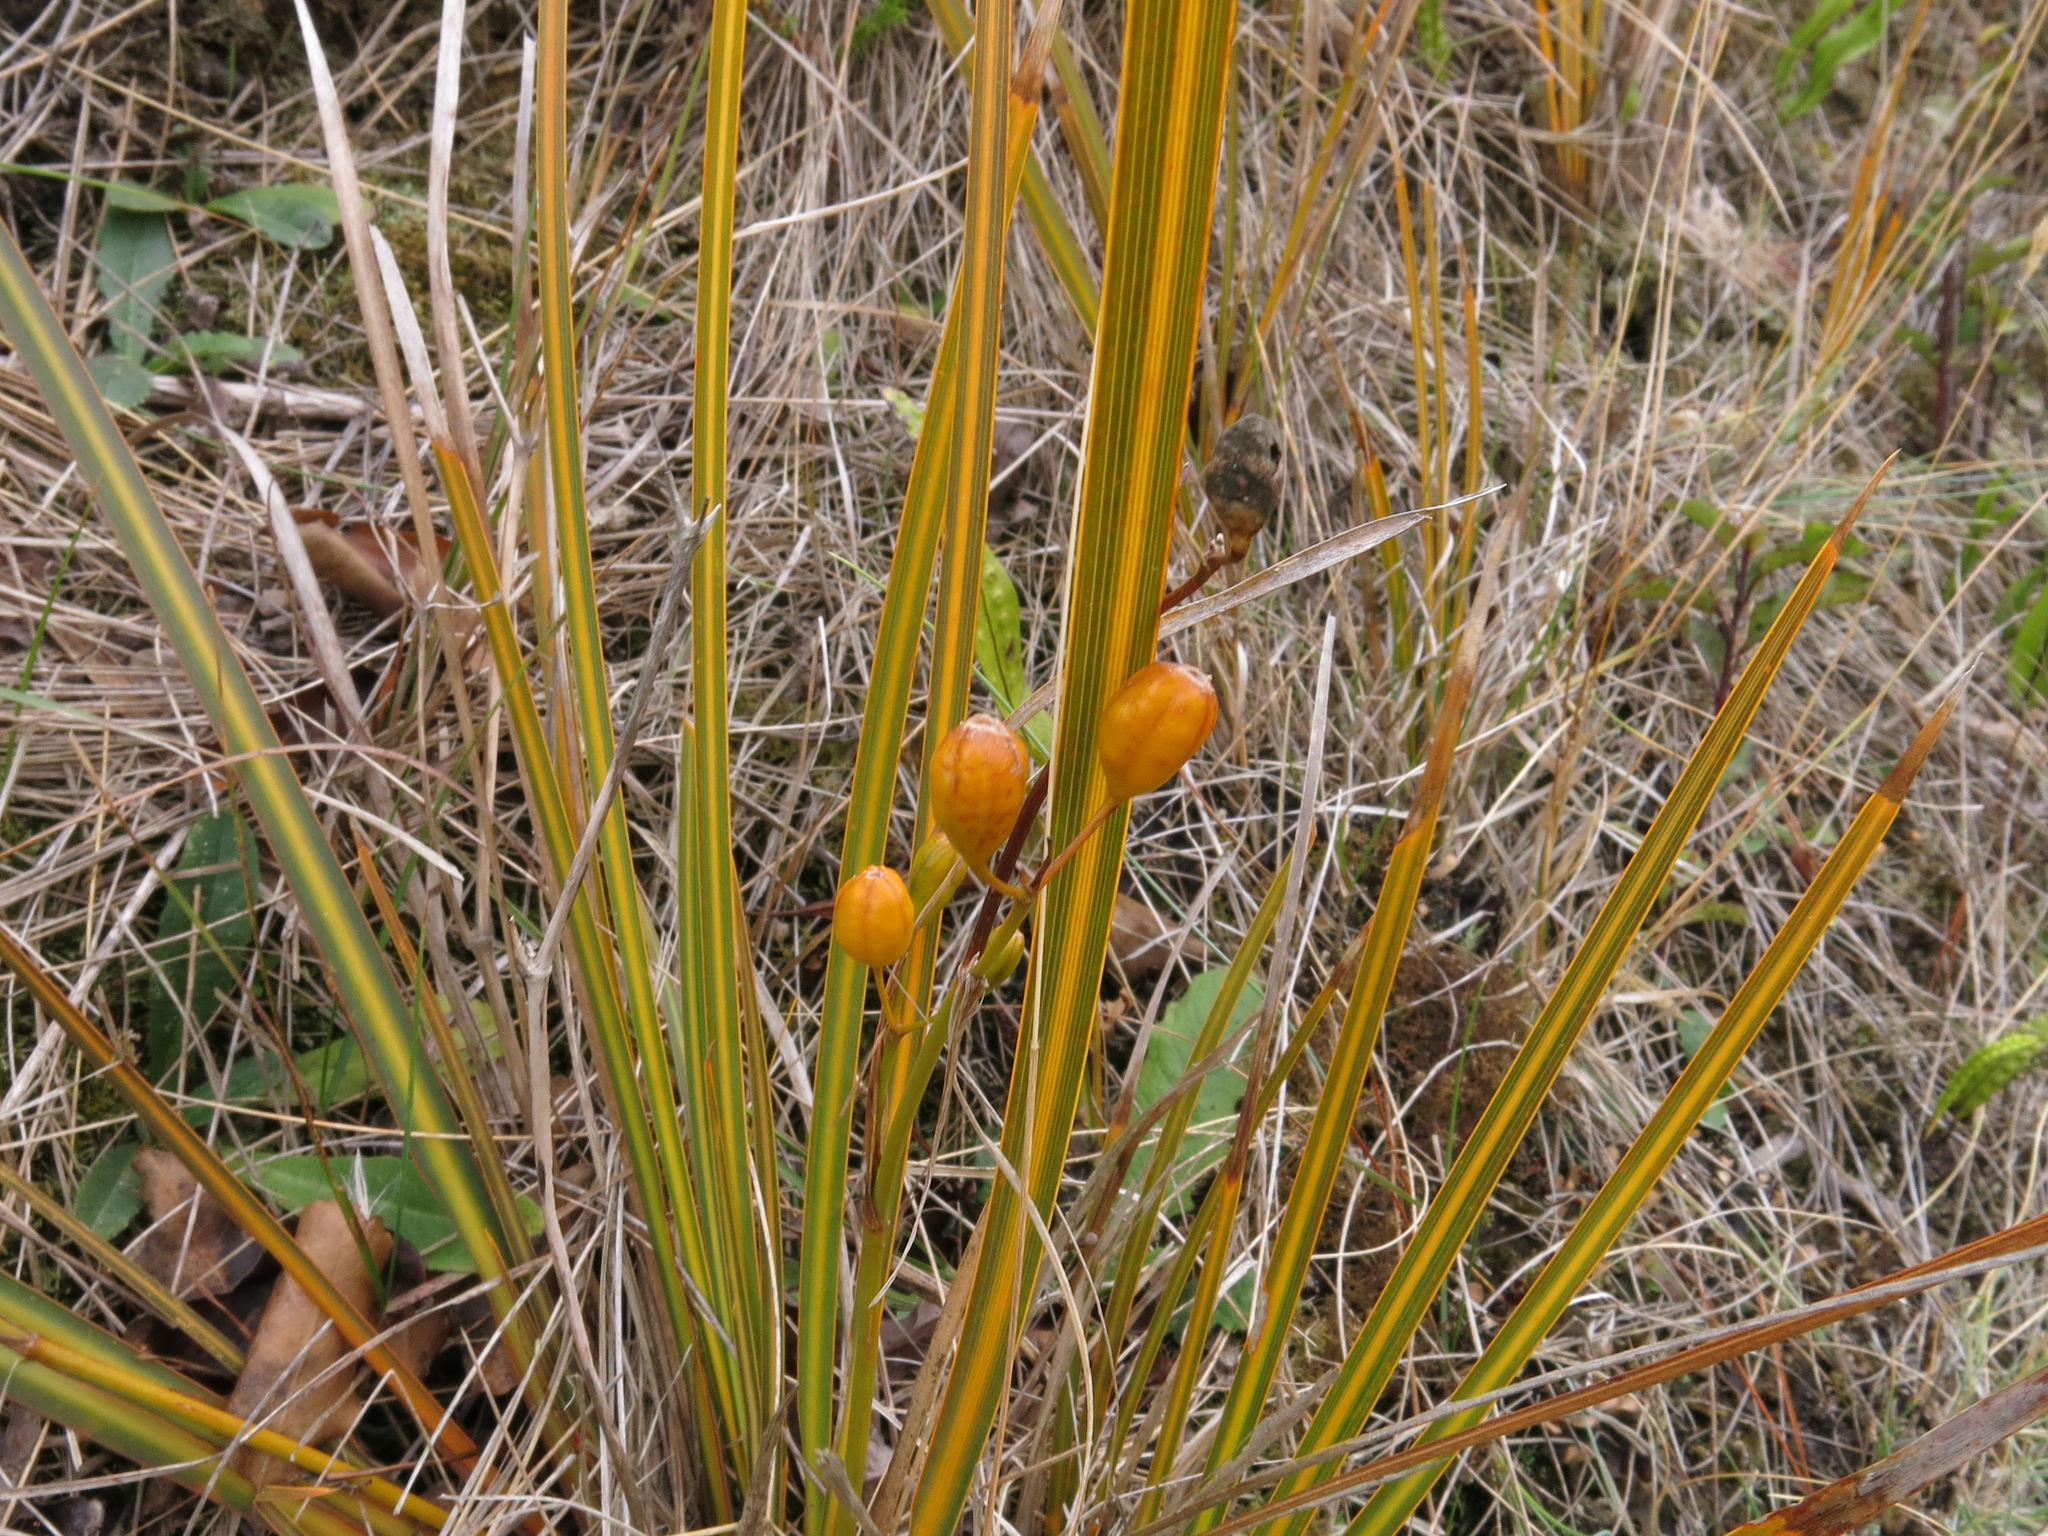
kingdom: Plantae
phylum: Tracheophyta
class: Liliopsida
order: Asparagales
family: Iridaceae
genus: Libertia
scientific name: Libertia peregrinans
